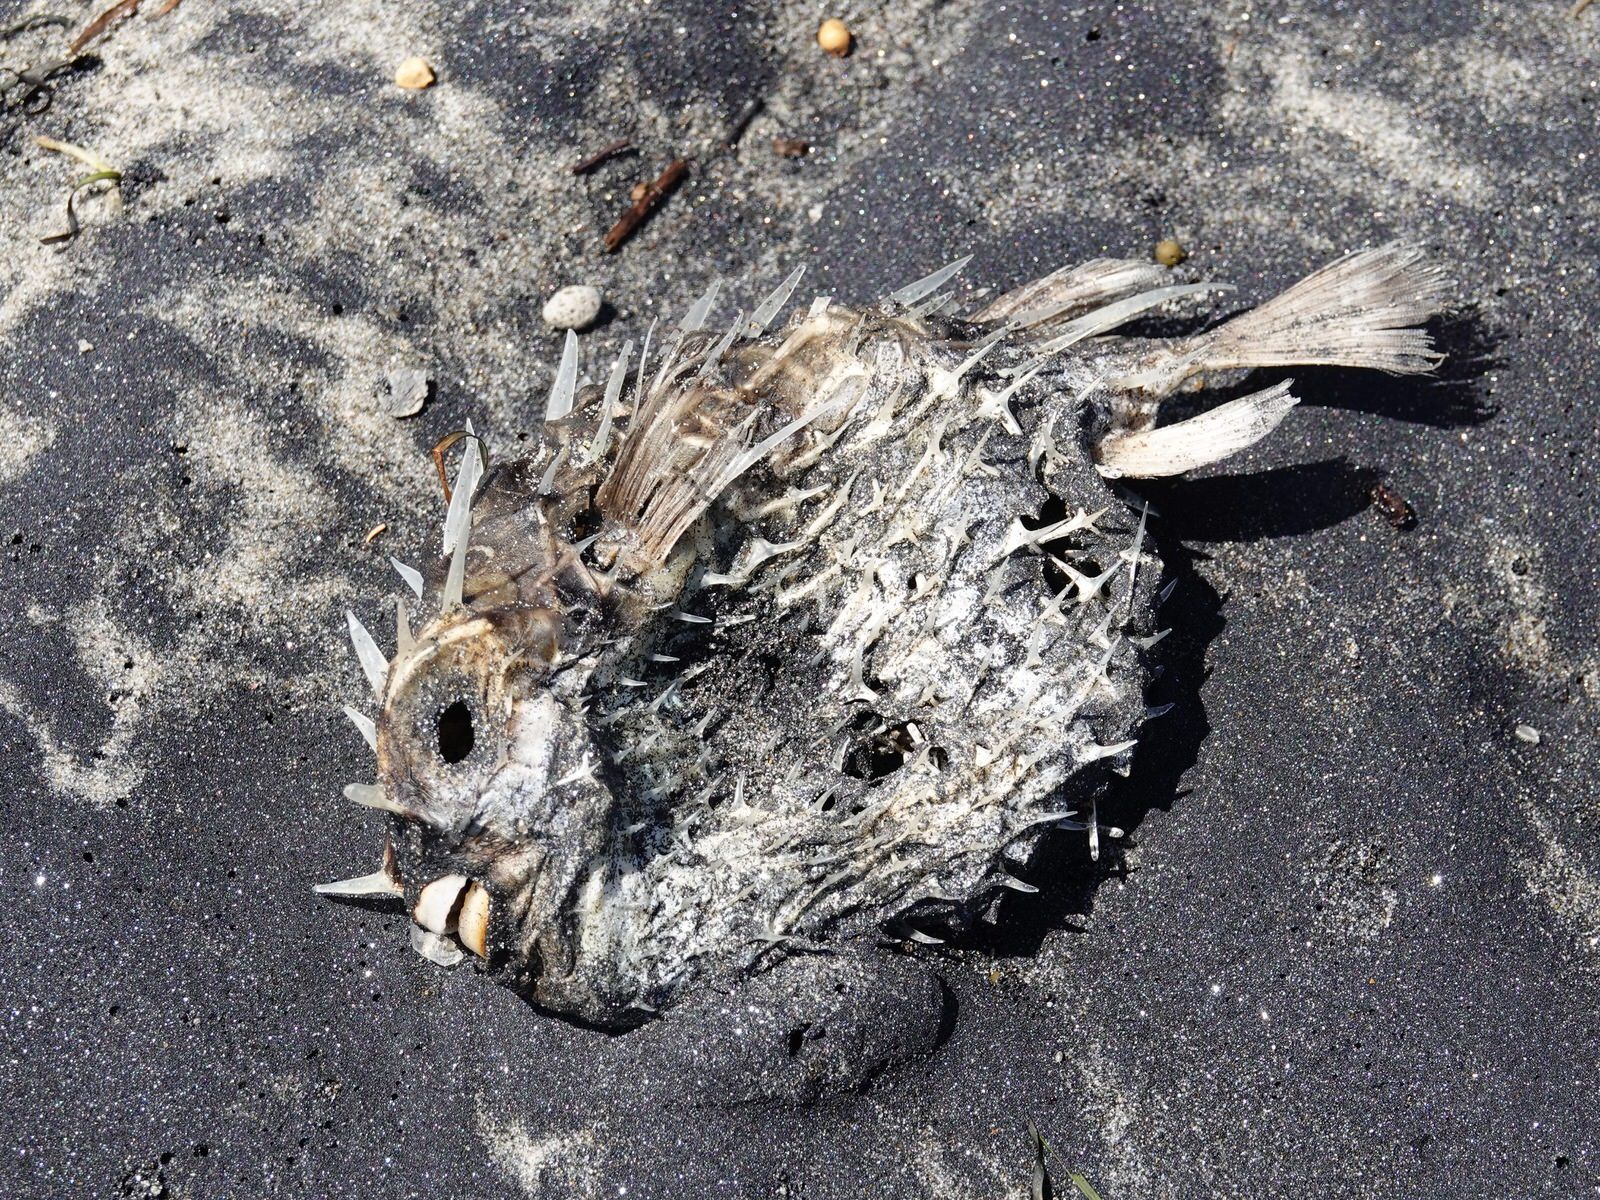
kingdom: Animalia
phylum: Chordata
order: Tetraodontiformes
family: Diodontidae
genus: Allomycterus
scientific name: Allomycterus pilatus
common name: No common name
